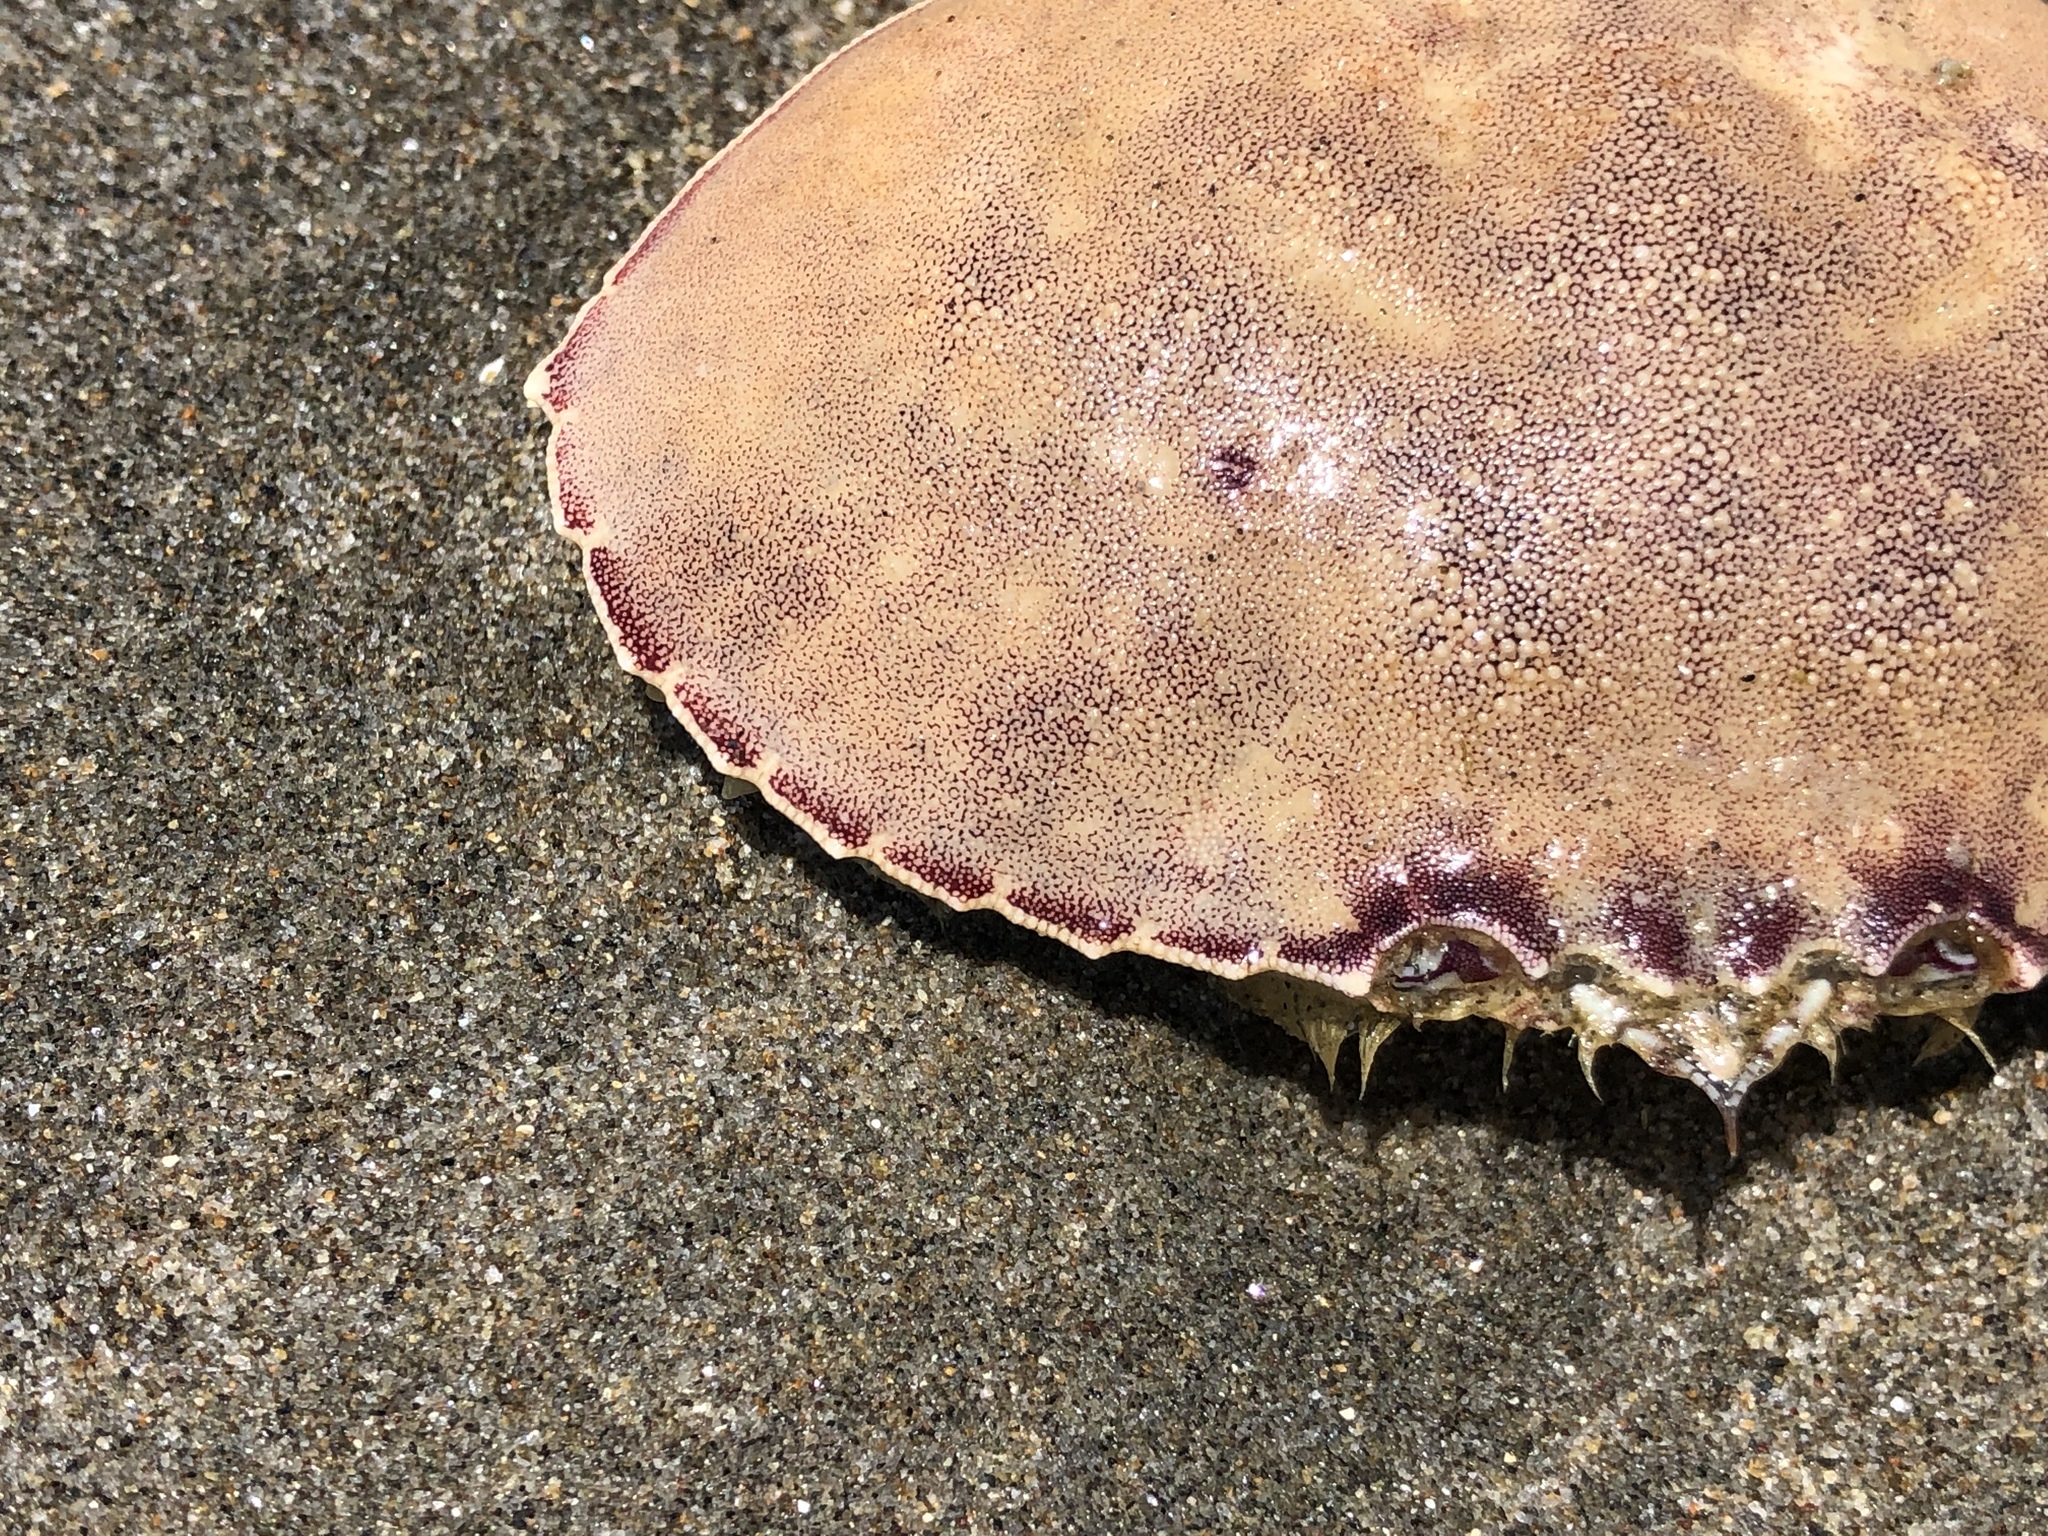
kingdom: Animalia
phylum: Arthropoda
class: Malacostraca
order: Decapoda
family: Cancridae
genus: Metacarcinus
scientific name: Metacarcinus gracilis
